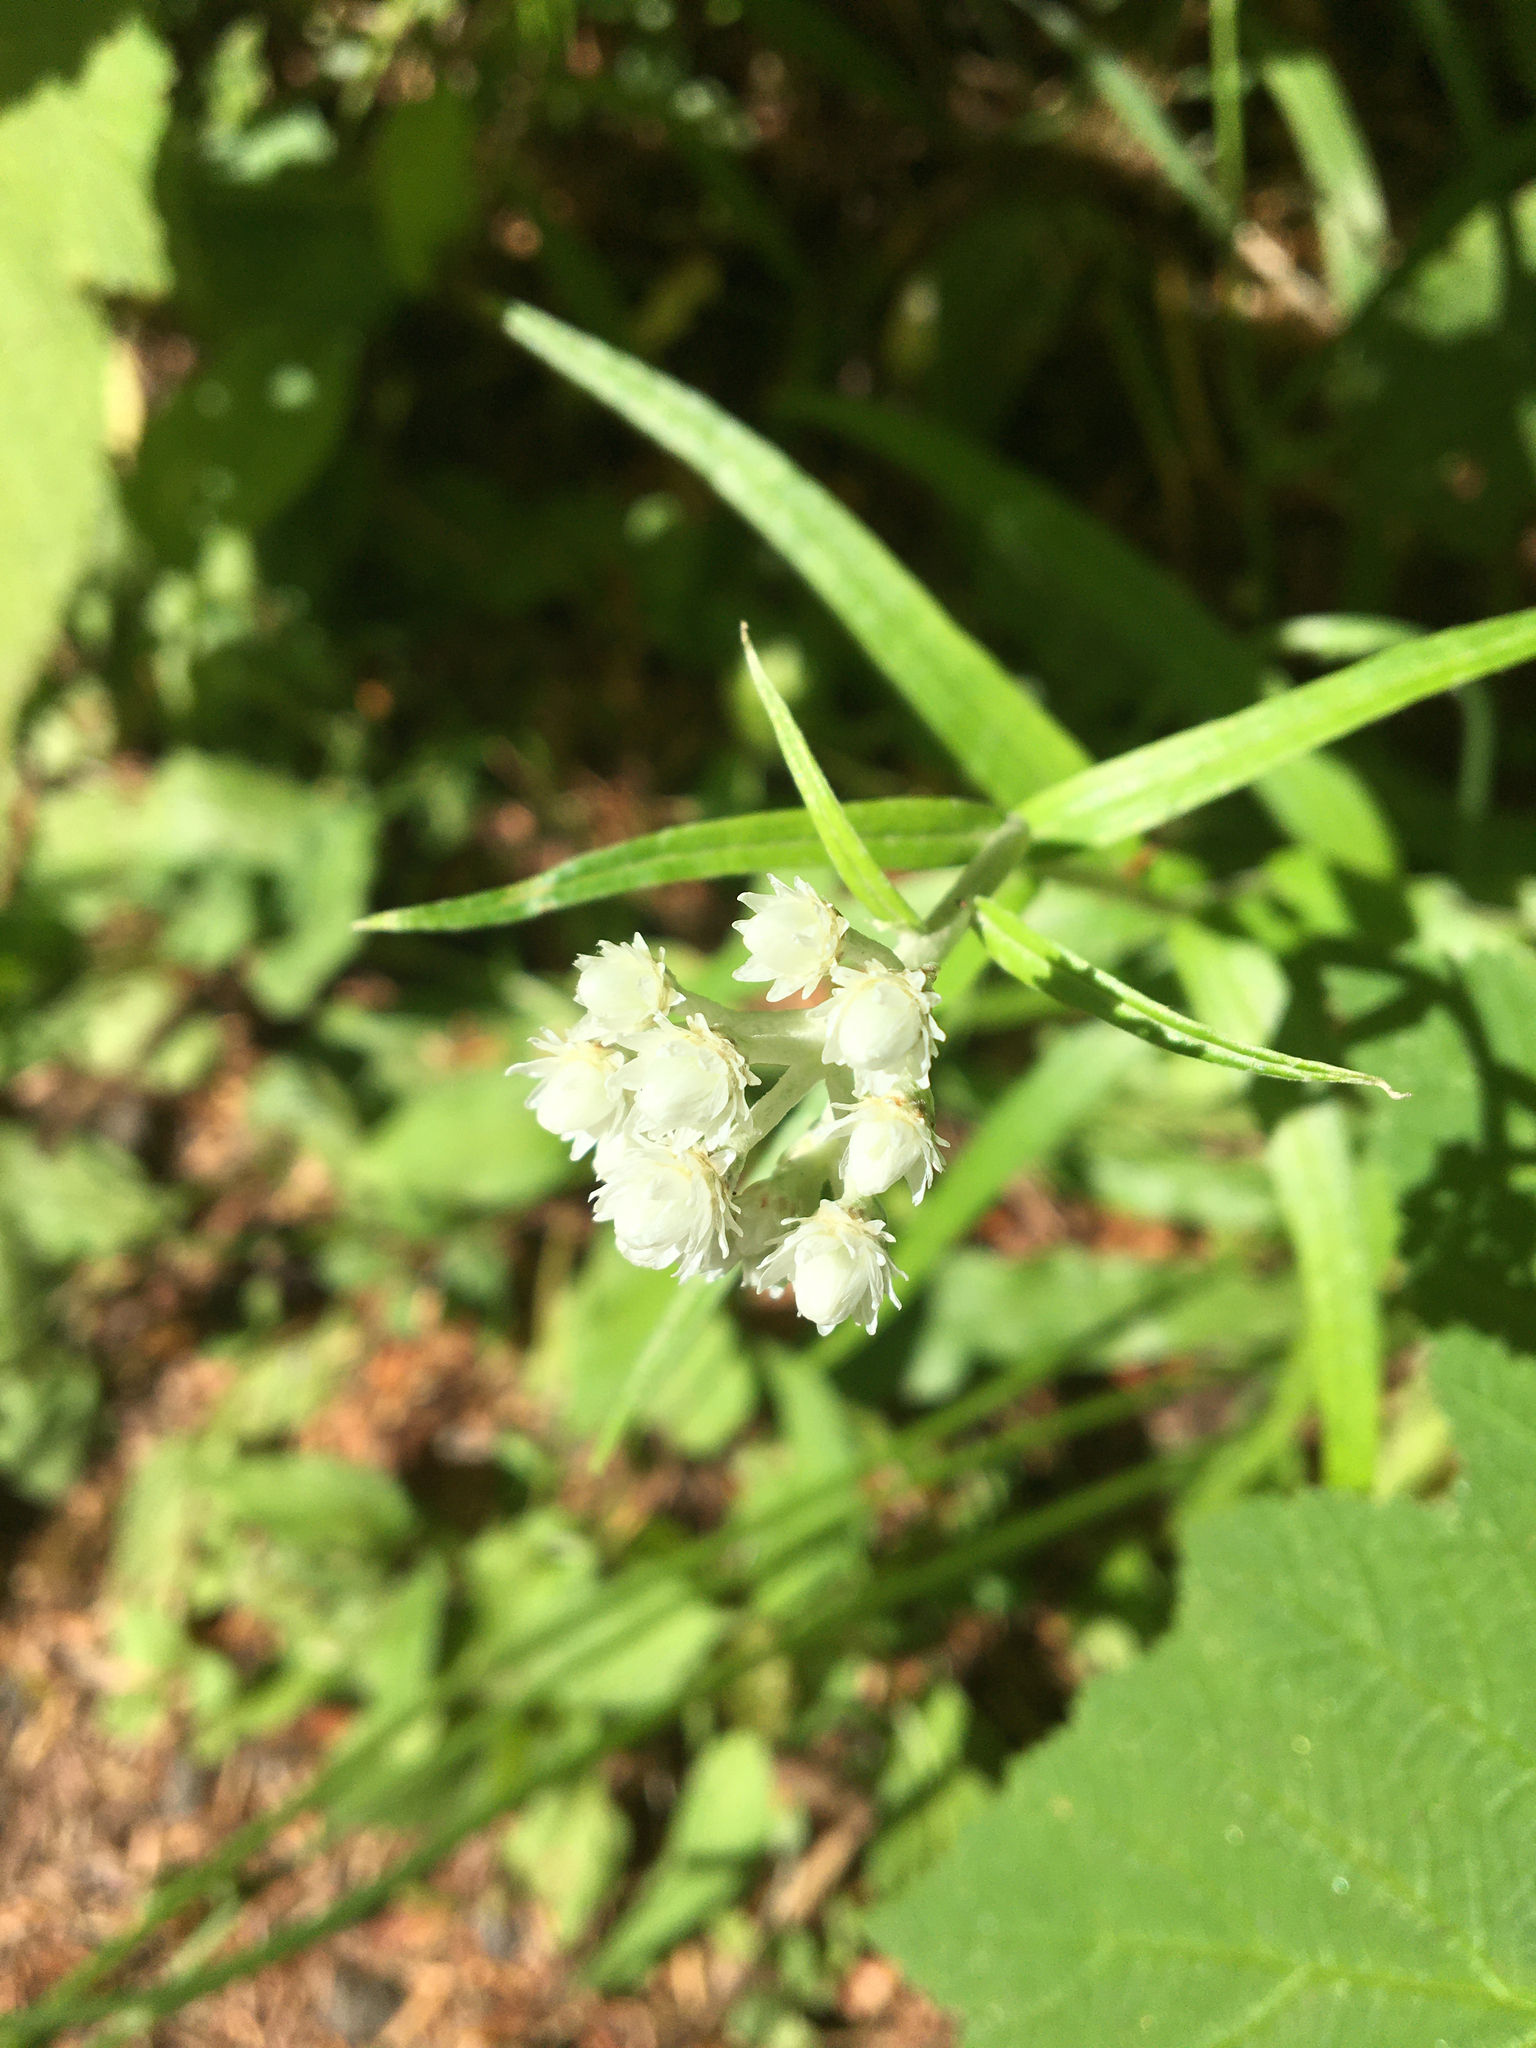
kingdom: Plantae
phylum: Tracheophyta
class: Magnoliopsida
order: Asterales
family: Asteraceae
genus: Anaphalis
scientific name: Anaphalis margaritacea
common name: Pearly everlasting
